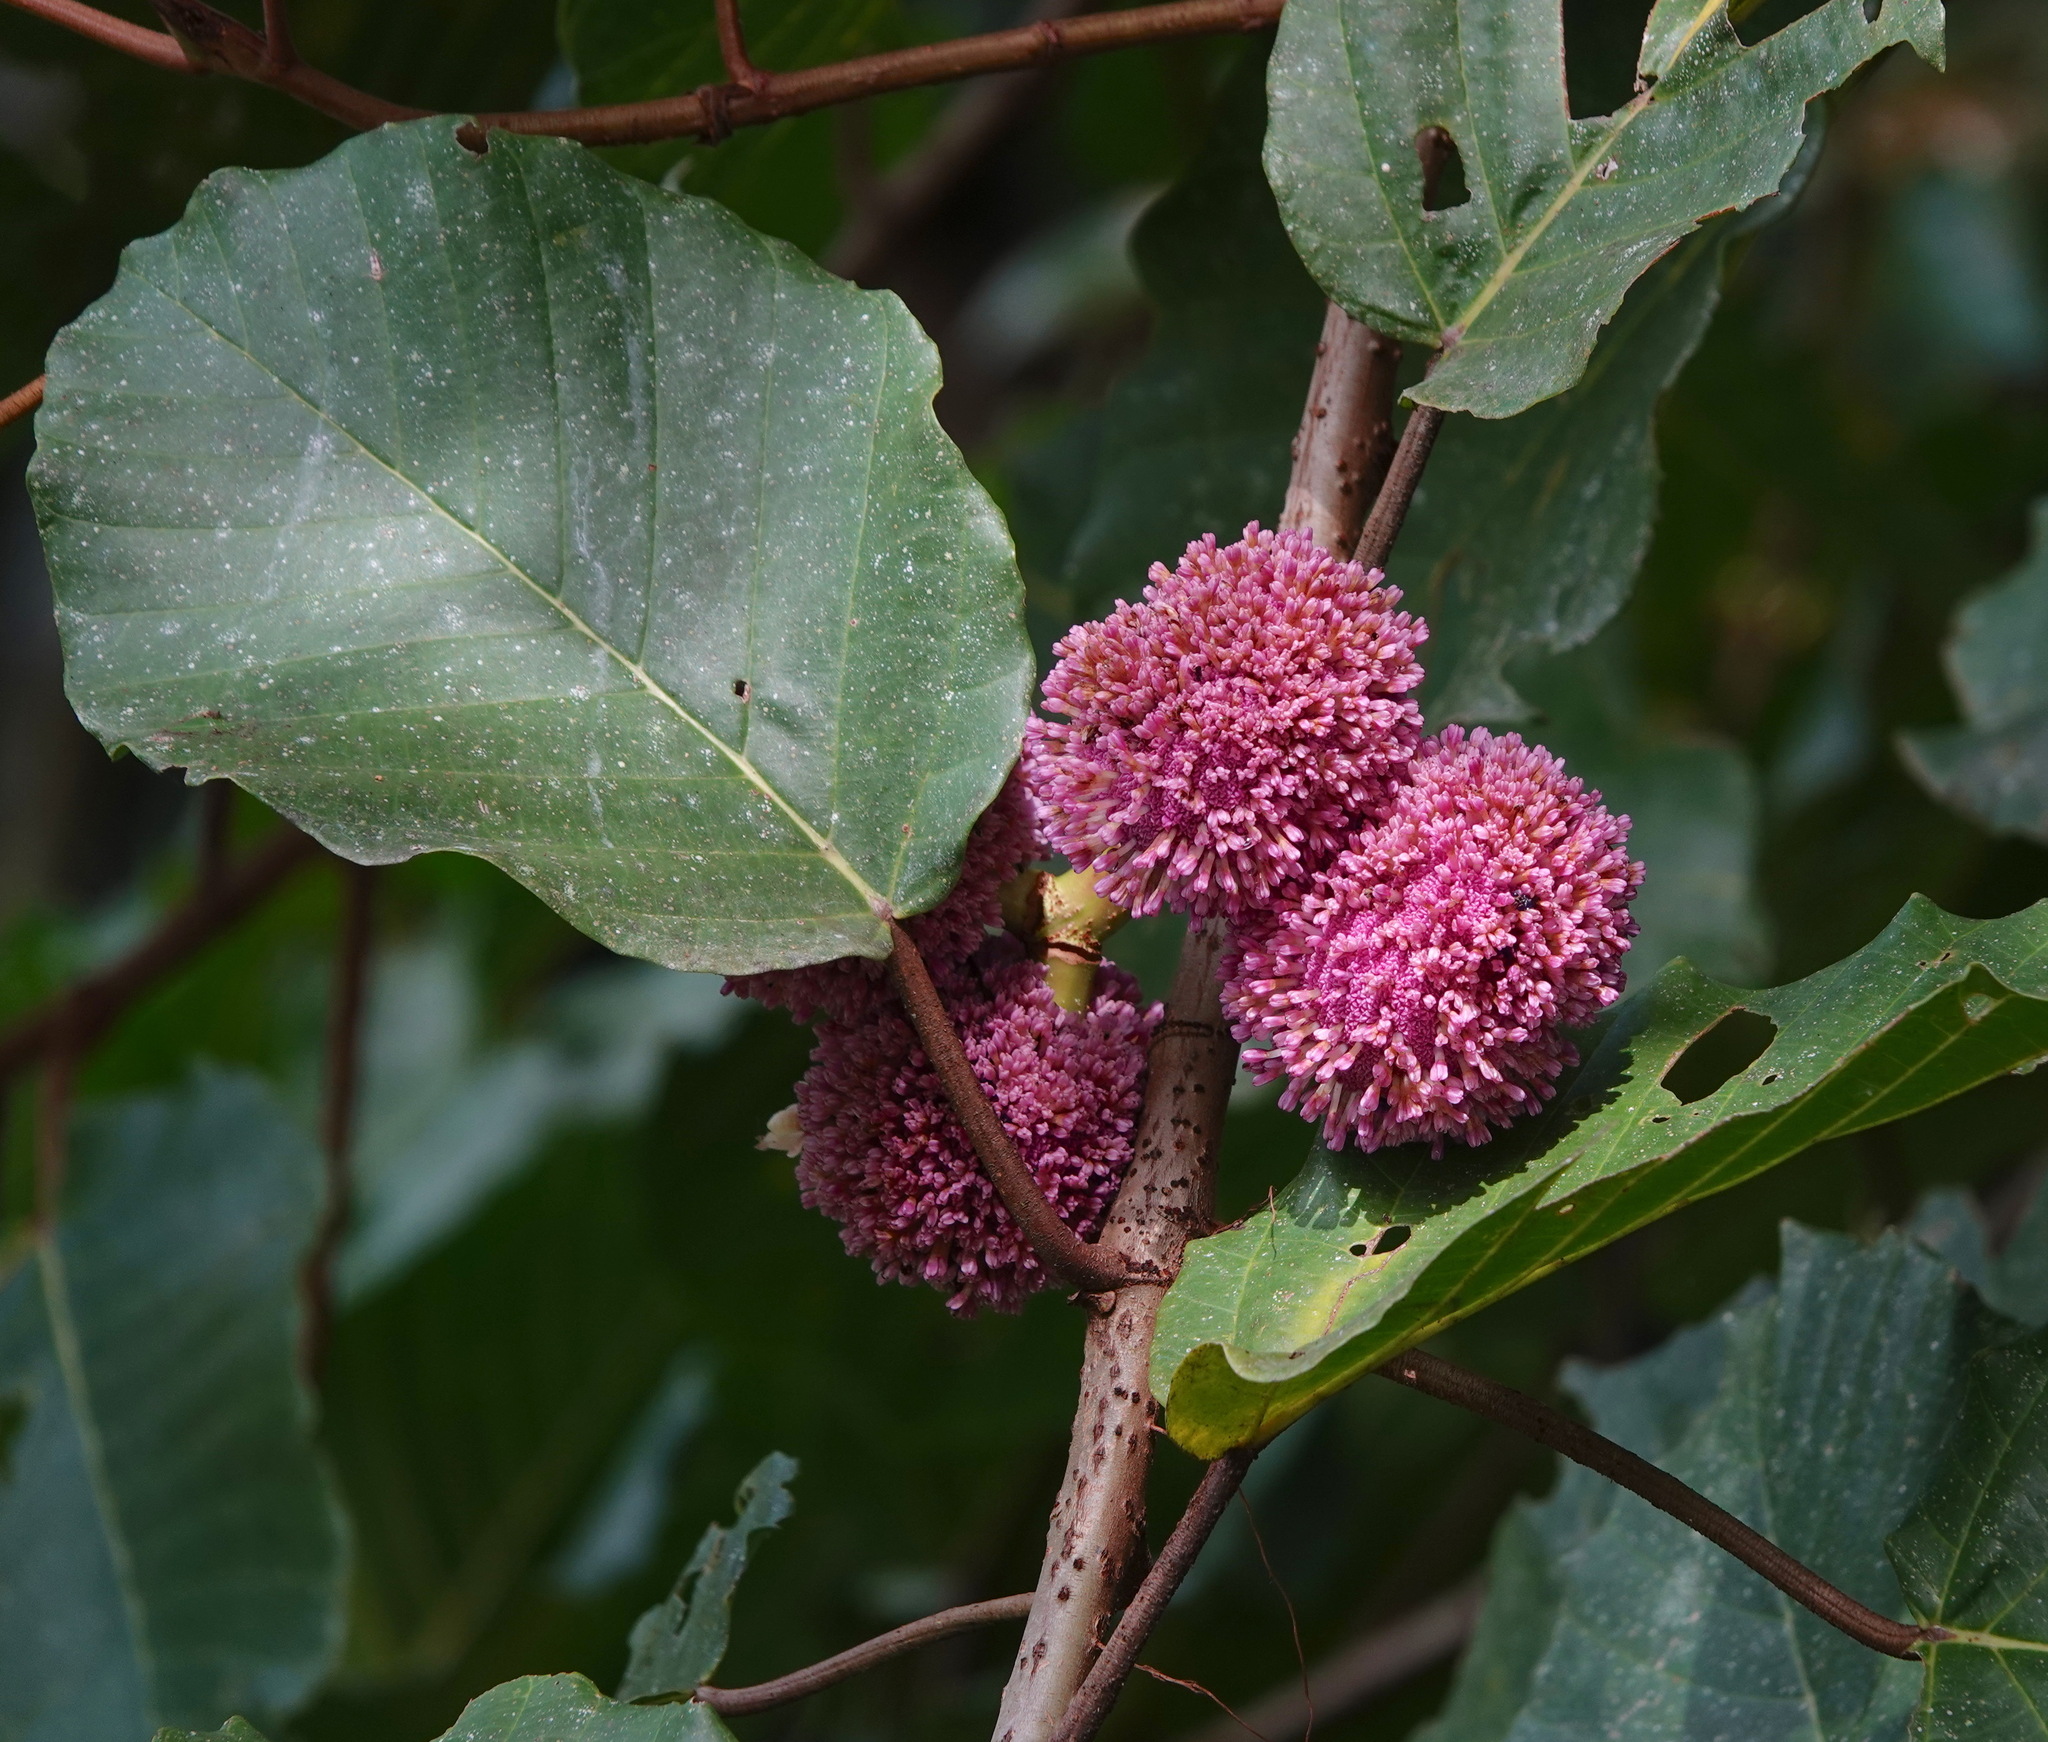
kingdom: Plantae
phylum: Tracheophyta
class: Magnoliopsida
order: Rosales
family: Urticaceae
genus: Poikilospermum
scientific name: Poikilospermum suaveolens
